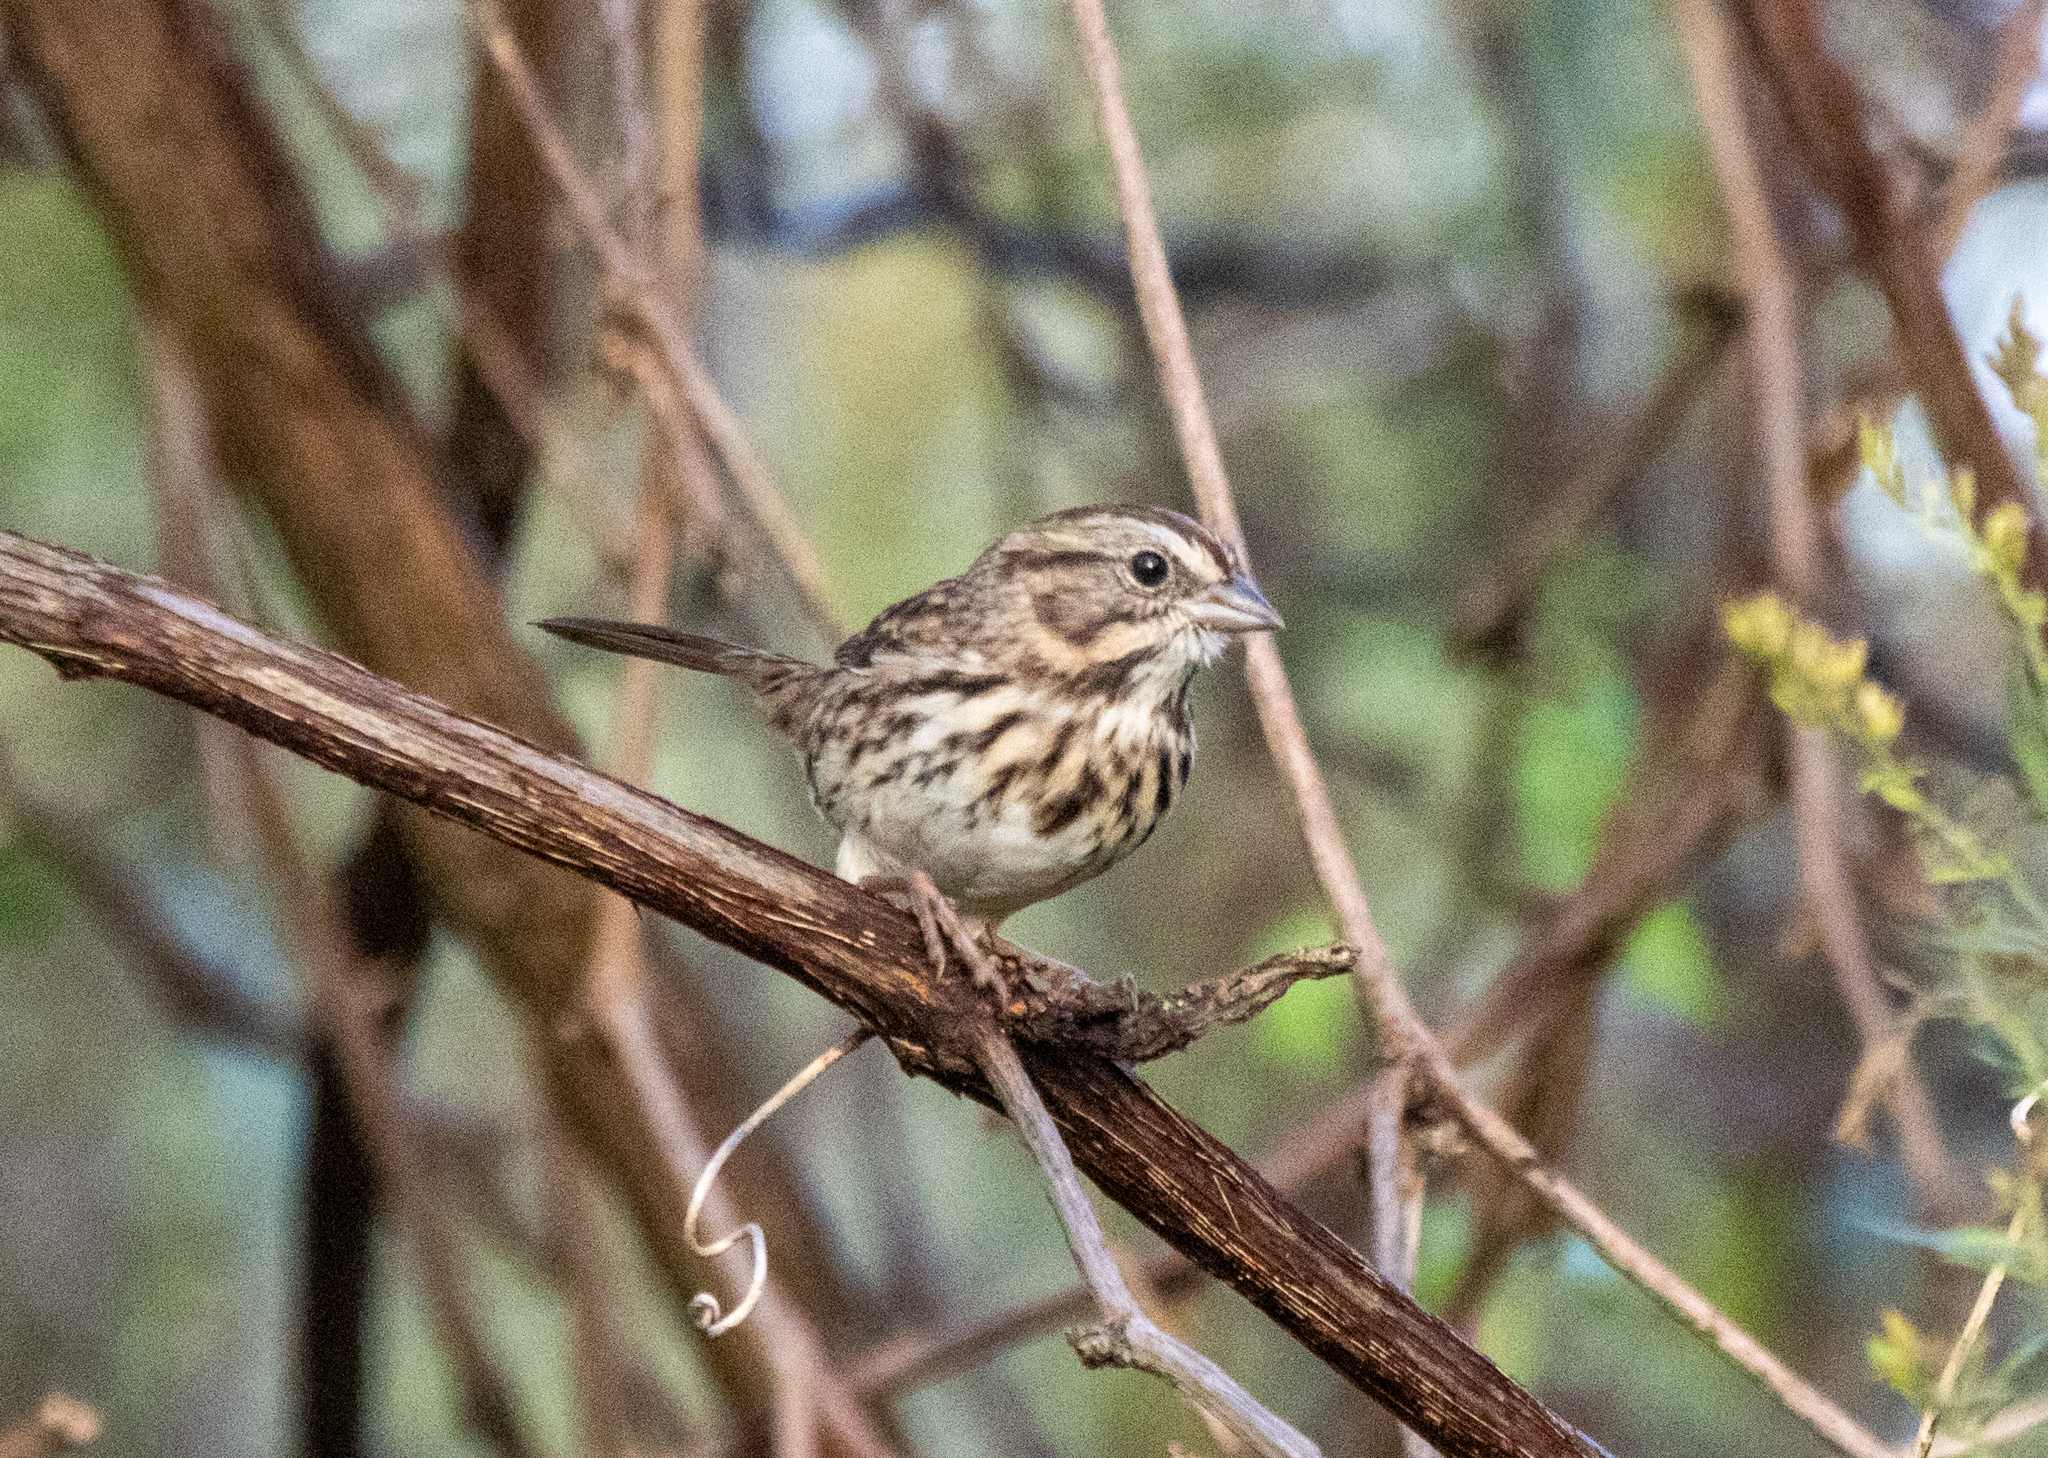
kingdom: Animalia
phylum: Chordata
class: Aves
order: Passeriformes
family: Passerellidae
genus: Melospiza
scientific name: Melospiza melodia
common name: Song sparrow
